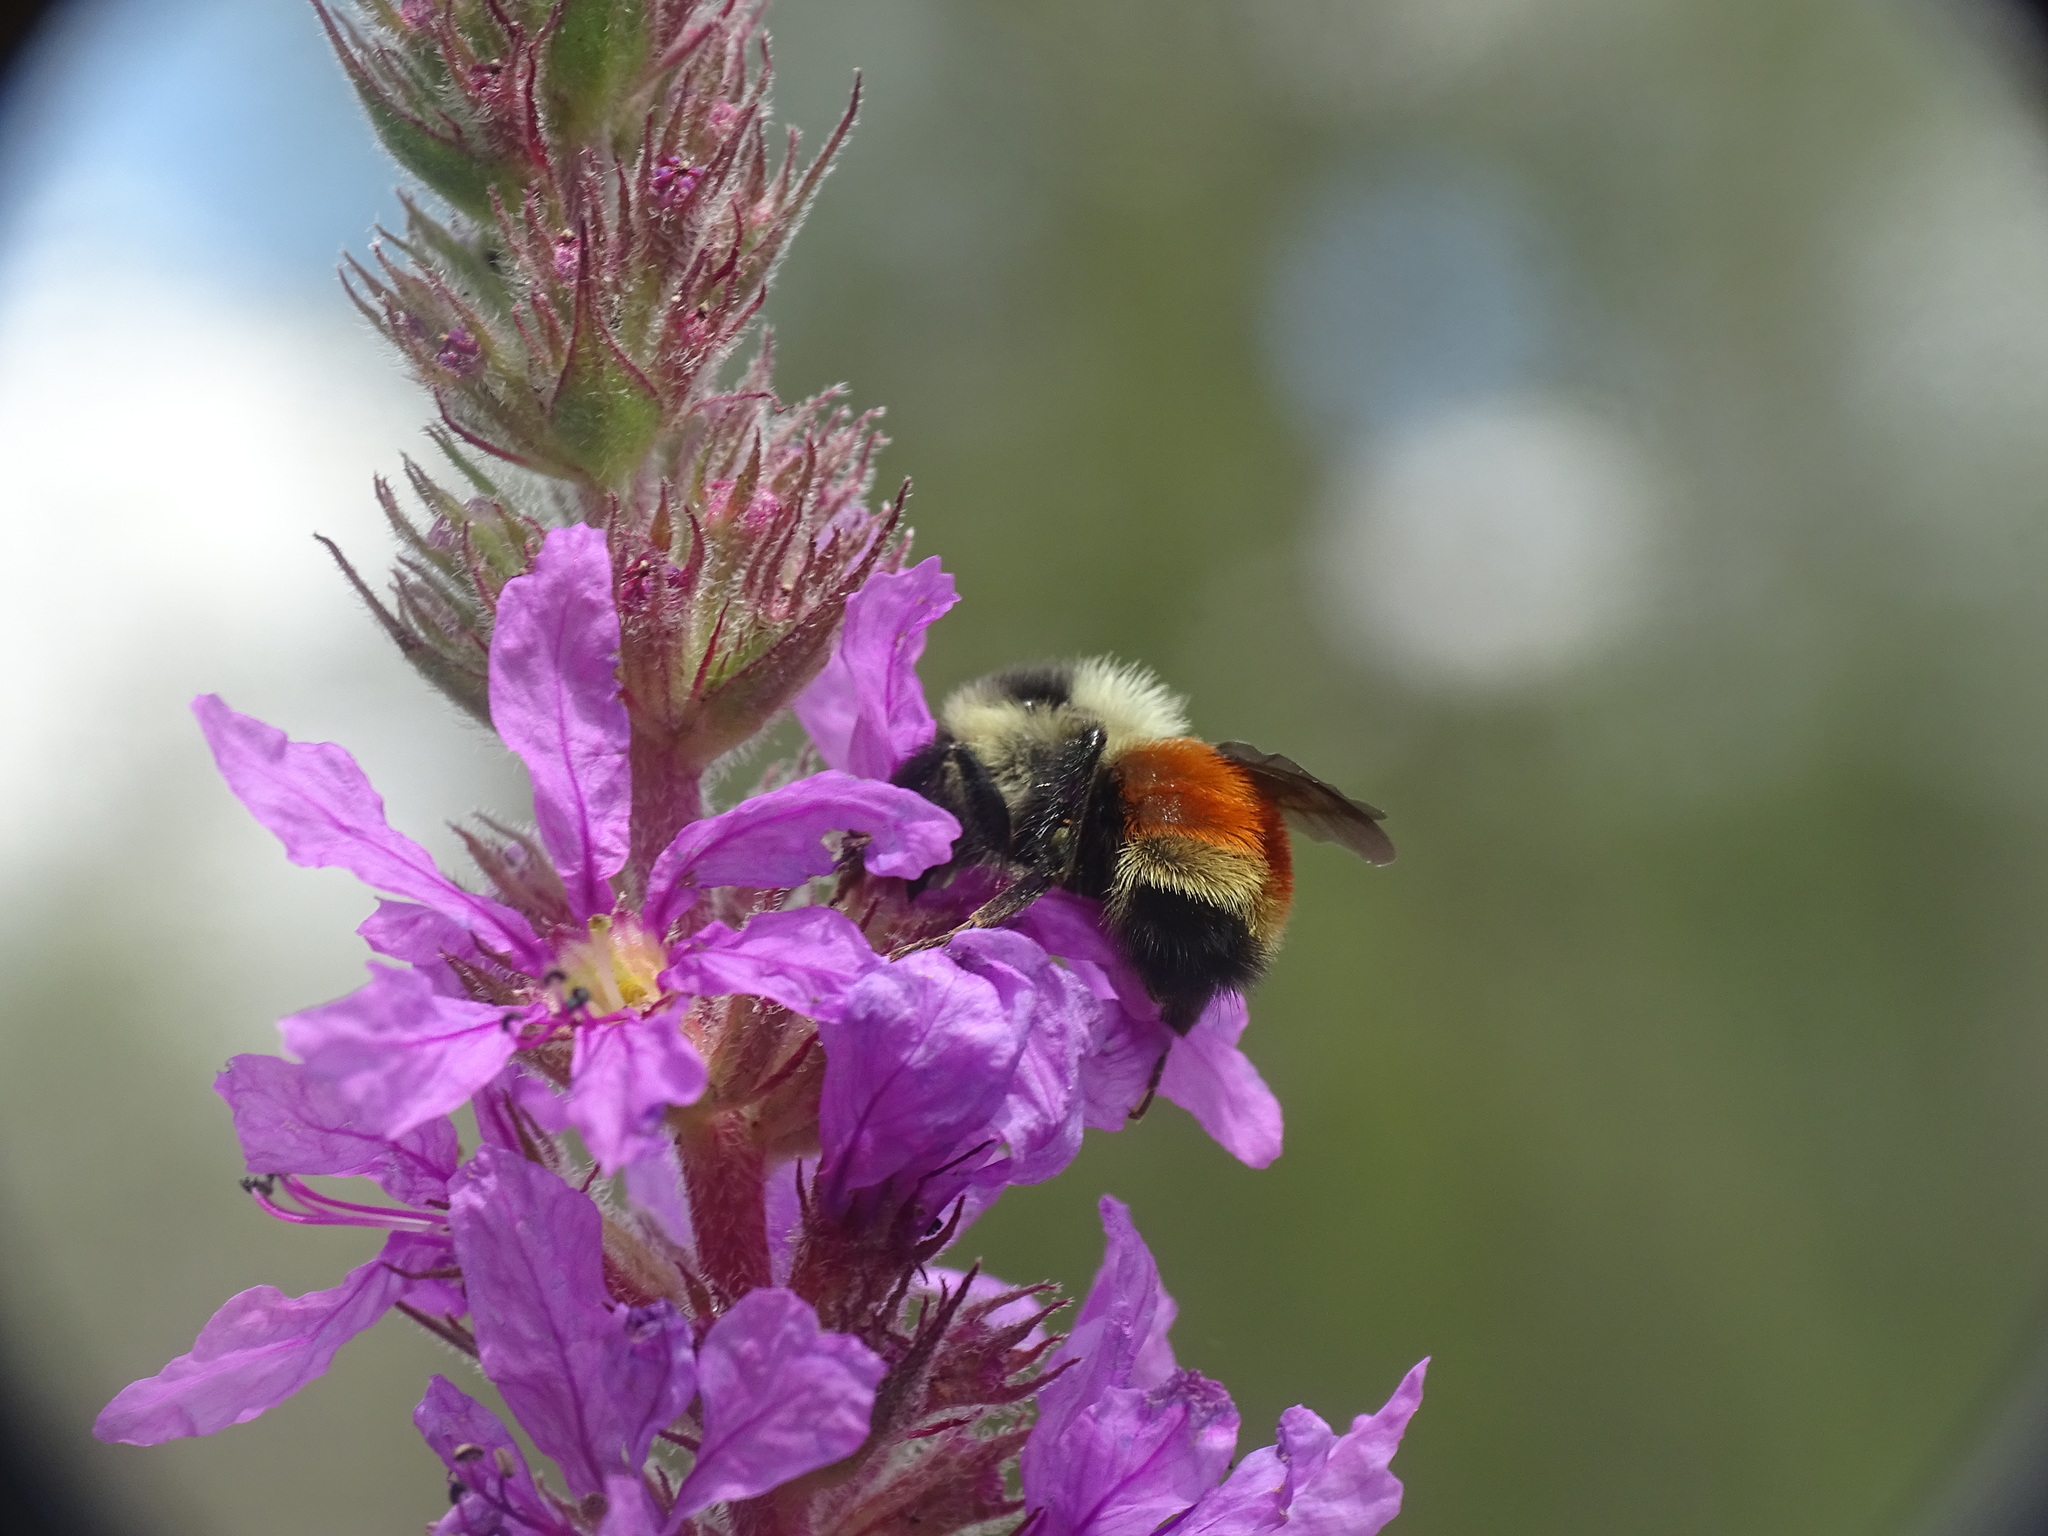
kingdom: Animalia
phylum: Arthropoda
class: Insecta
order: Hymenoptera
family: Apidae
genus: Bombus
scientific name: Bombus ternarius
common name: Tri-colored bumble bee
